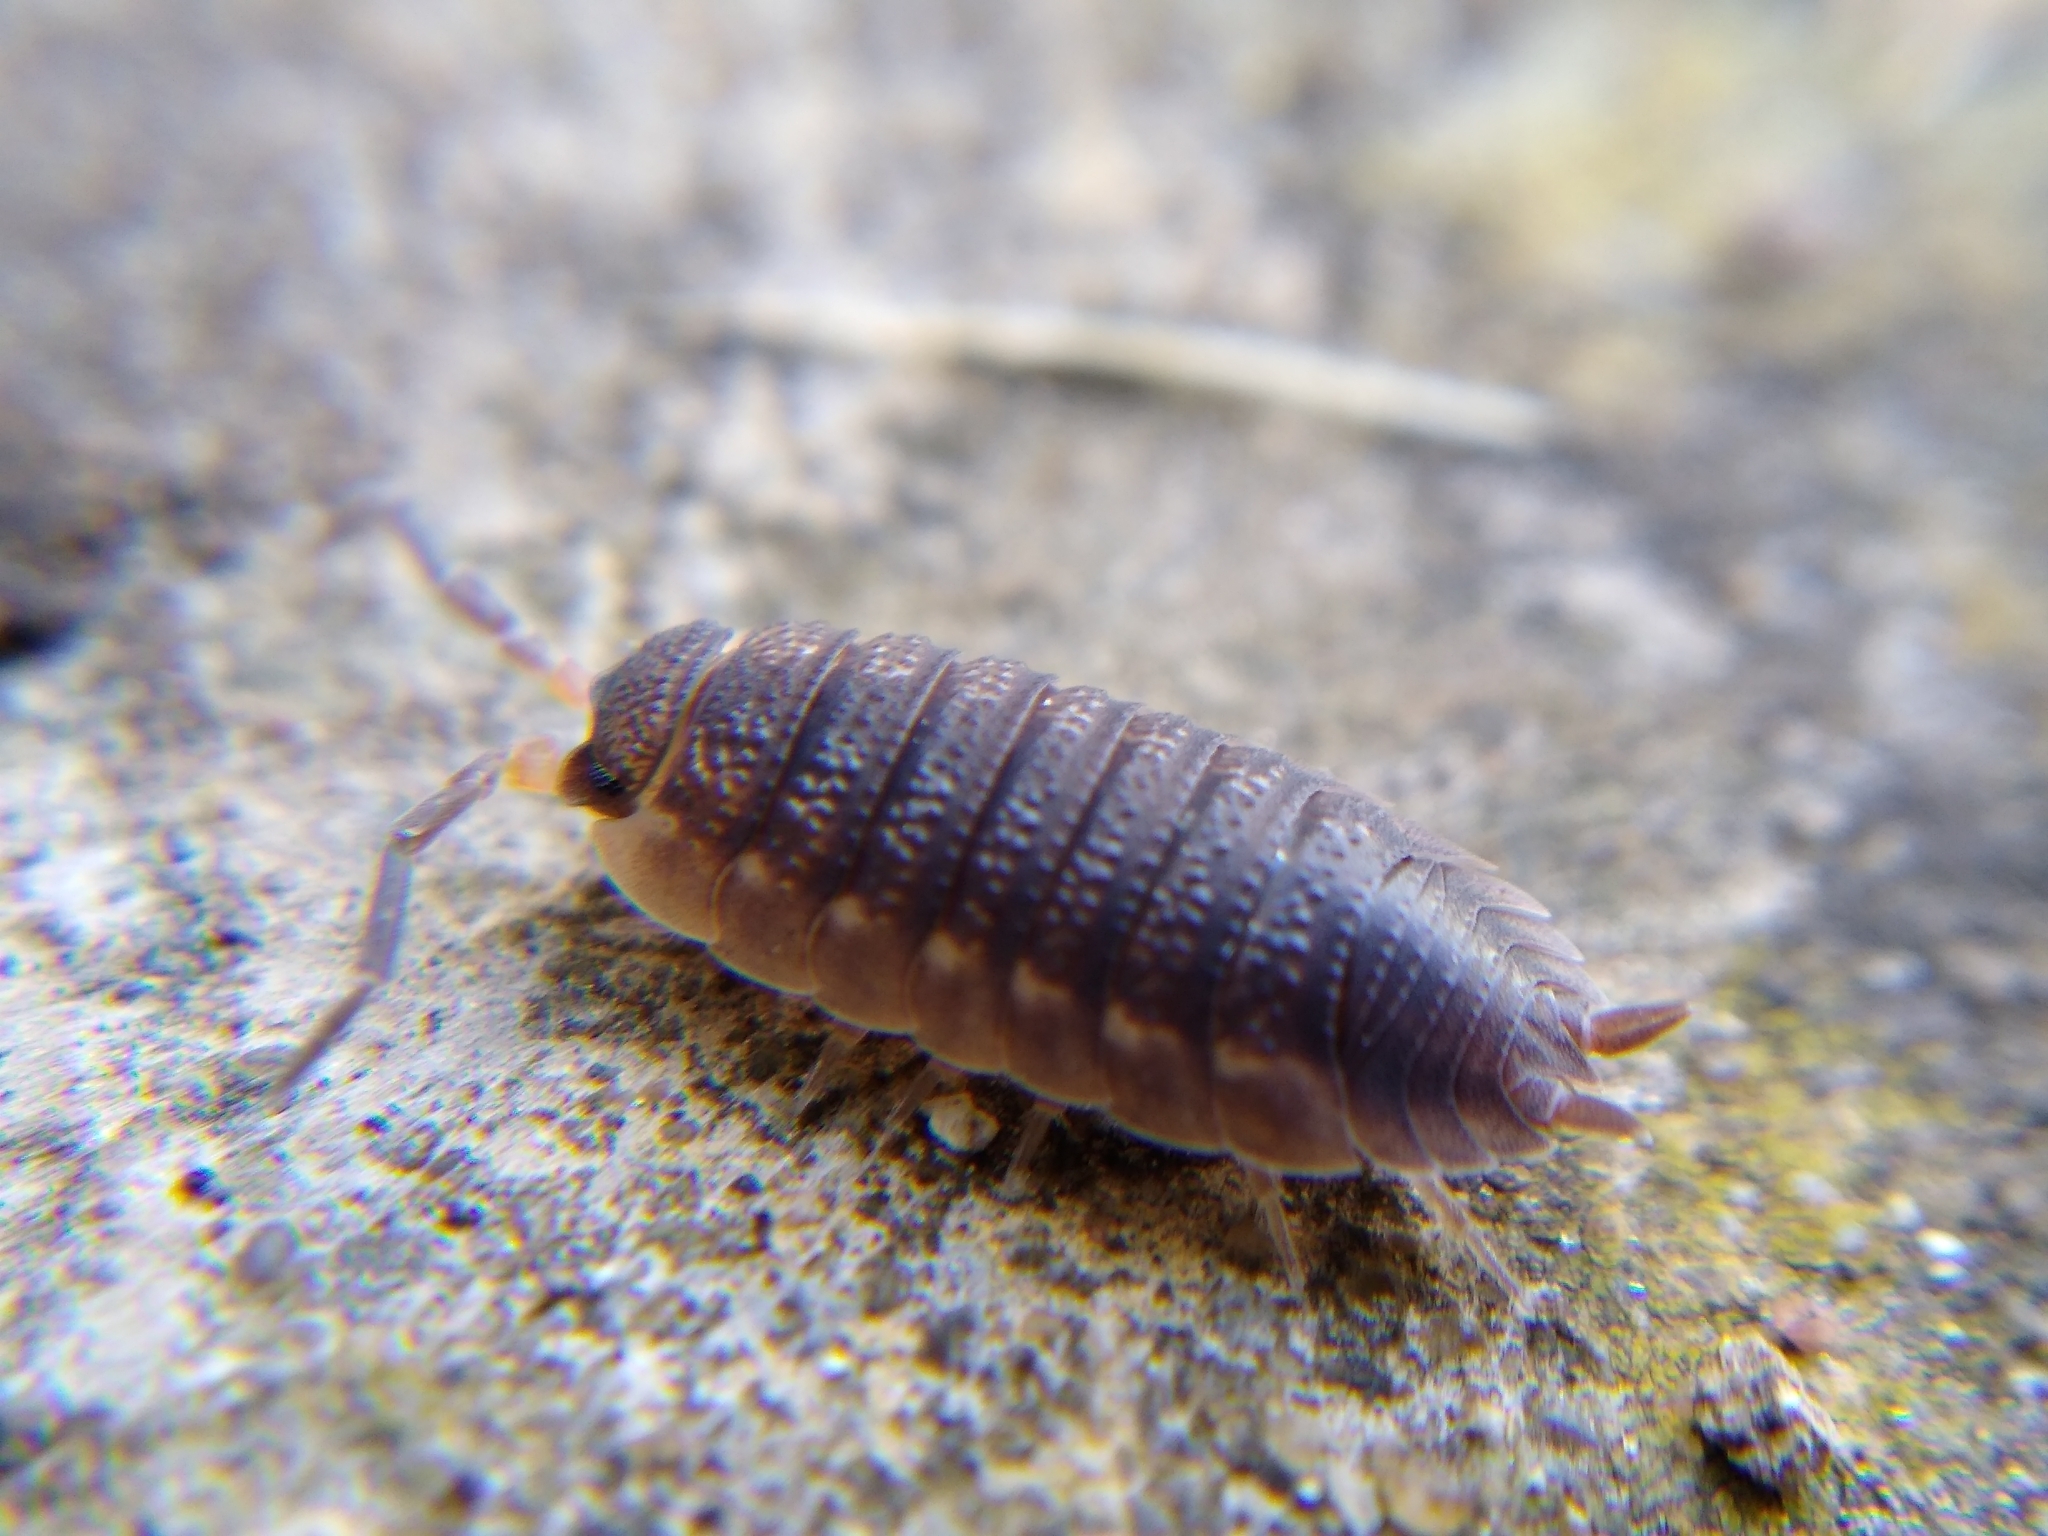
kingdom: Animalia
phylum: Arthropoda
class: Malacostraca
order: Isopoda
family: Porcellionidae
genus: Porcellio
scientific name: Porcellio scaber
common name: Common rough woodlouse
